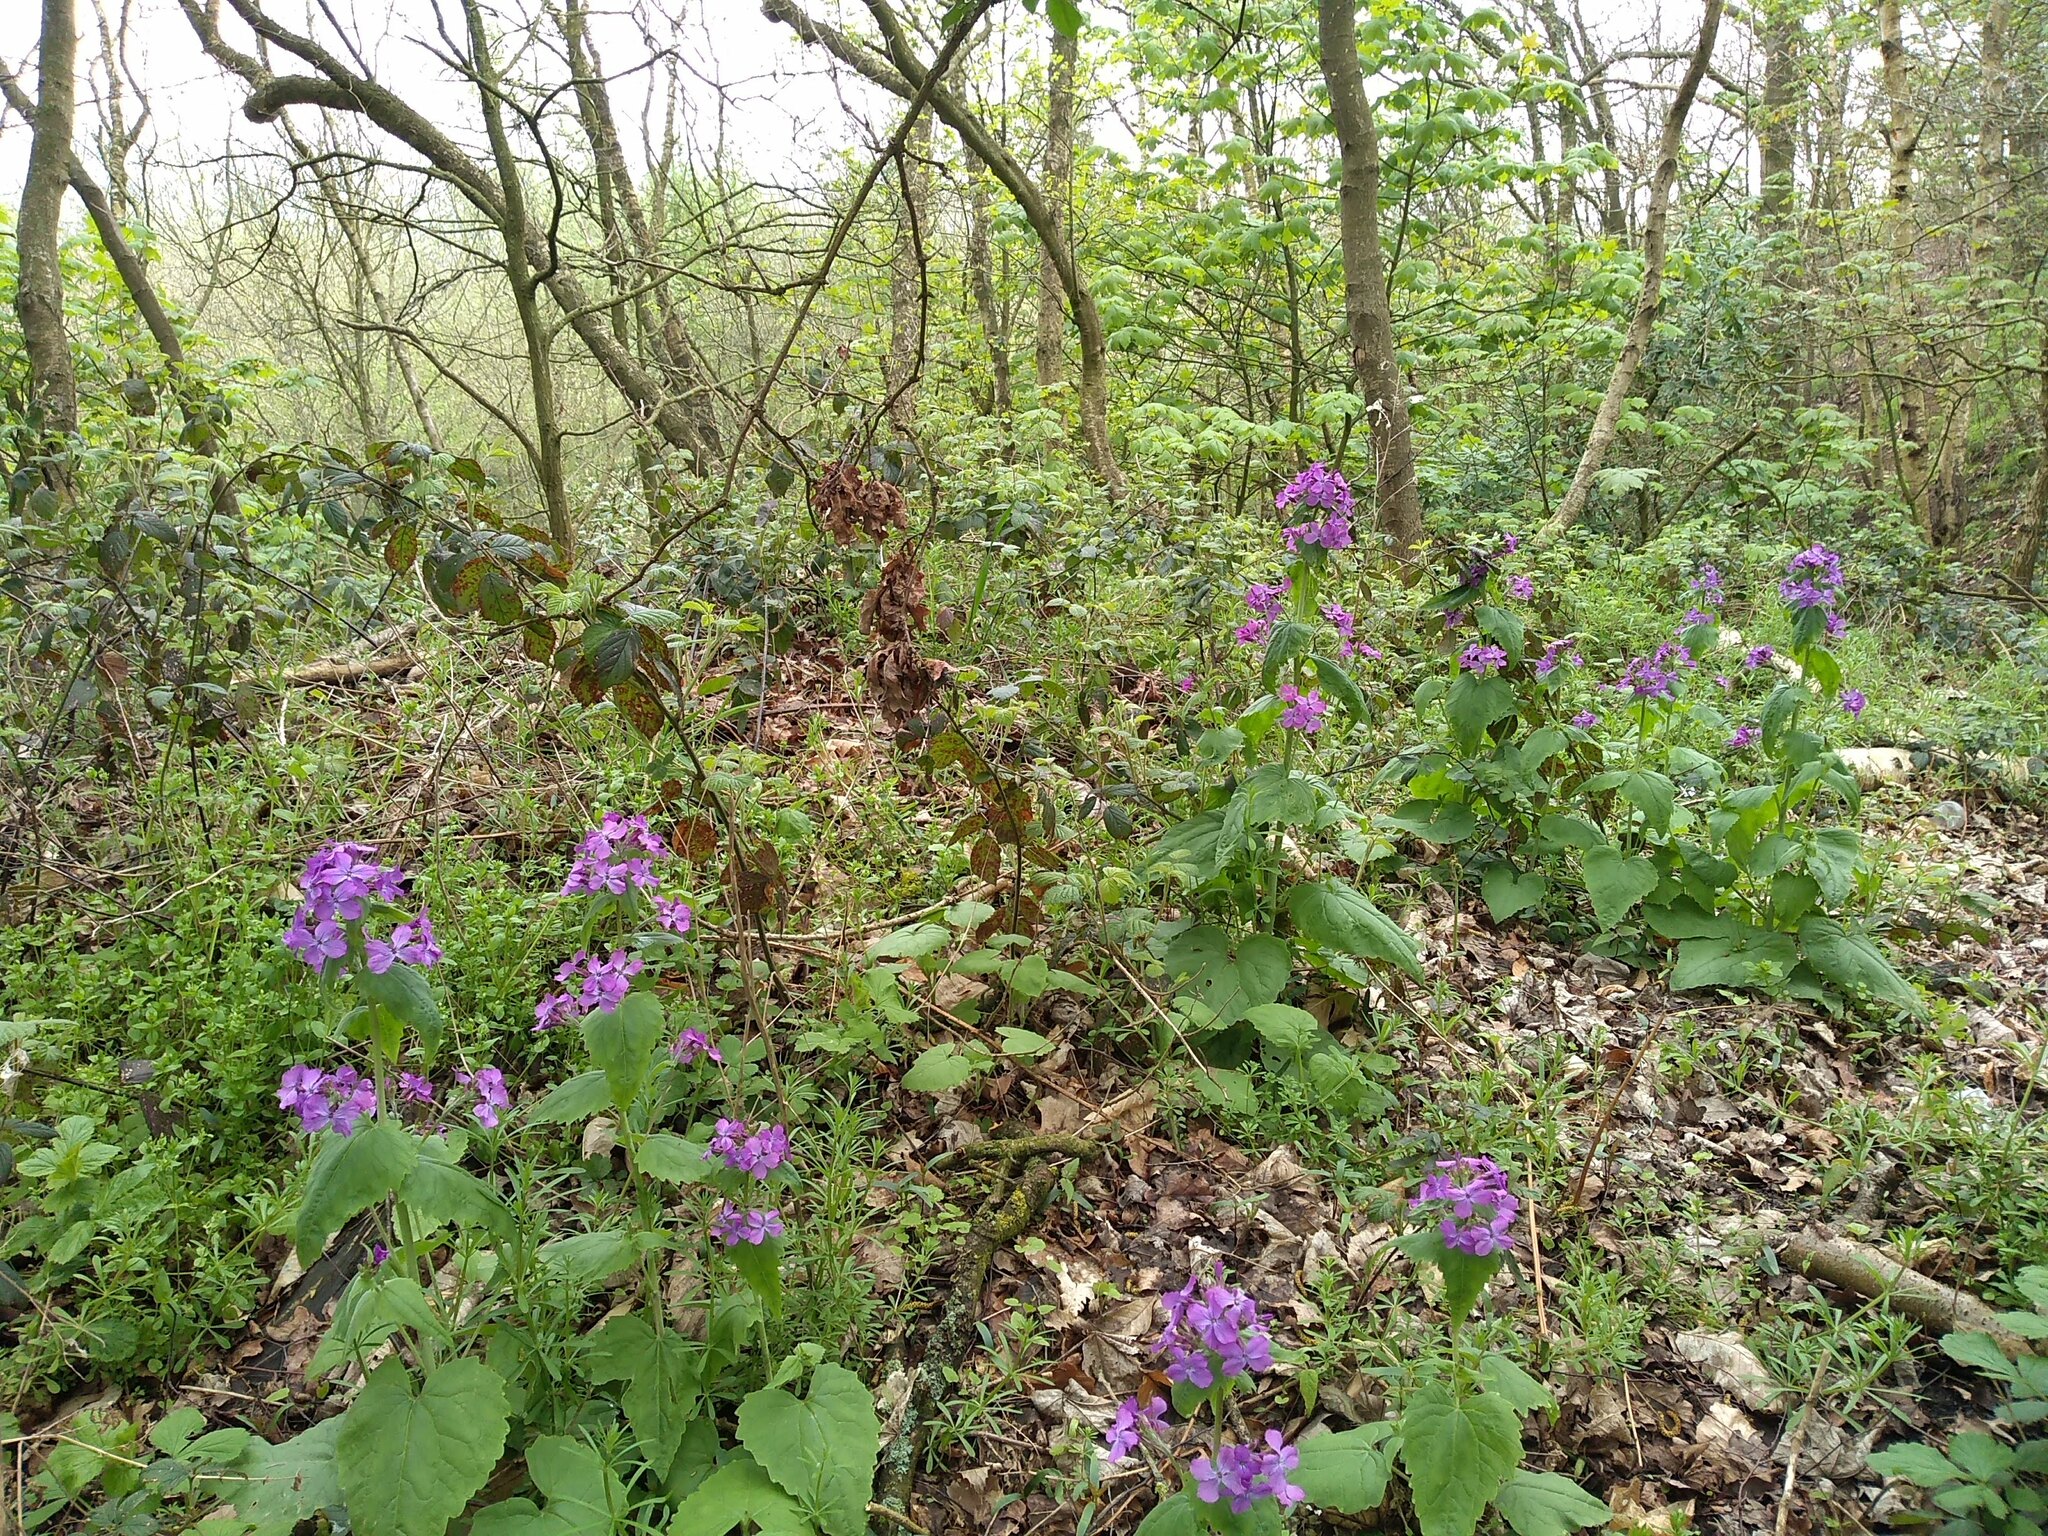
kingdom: Plantae
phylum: Tracheophyta
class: Magnoliopsida
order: Brassicales
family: Brassicaceae
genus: Lunaria
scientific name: Lunaria annua
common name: Honesty
